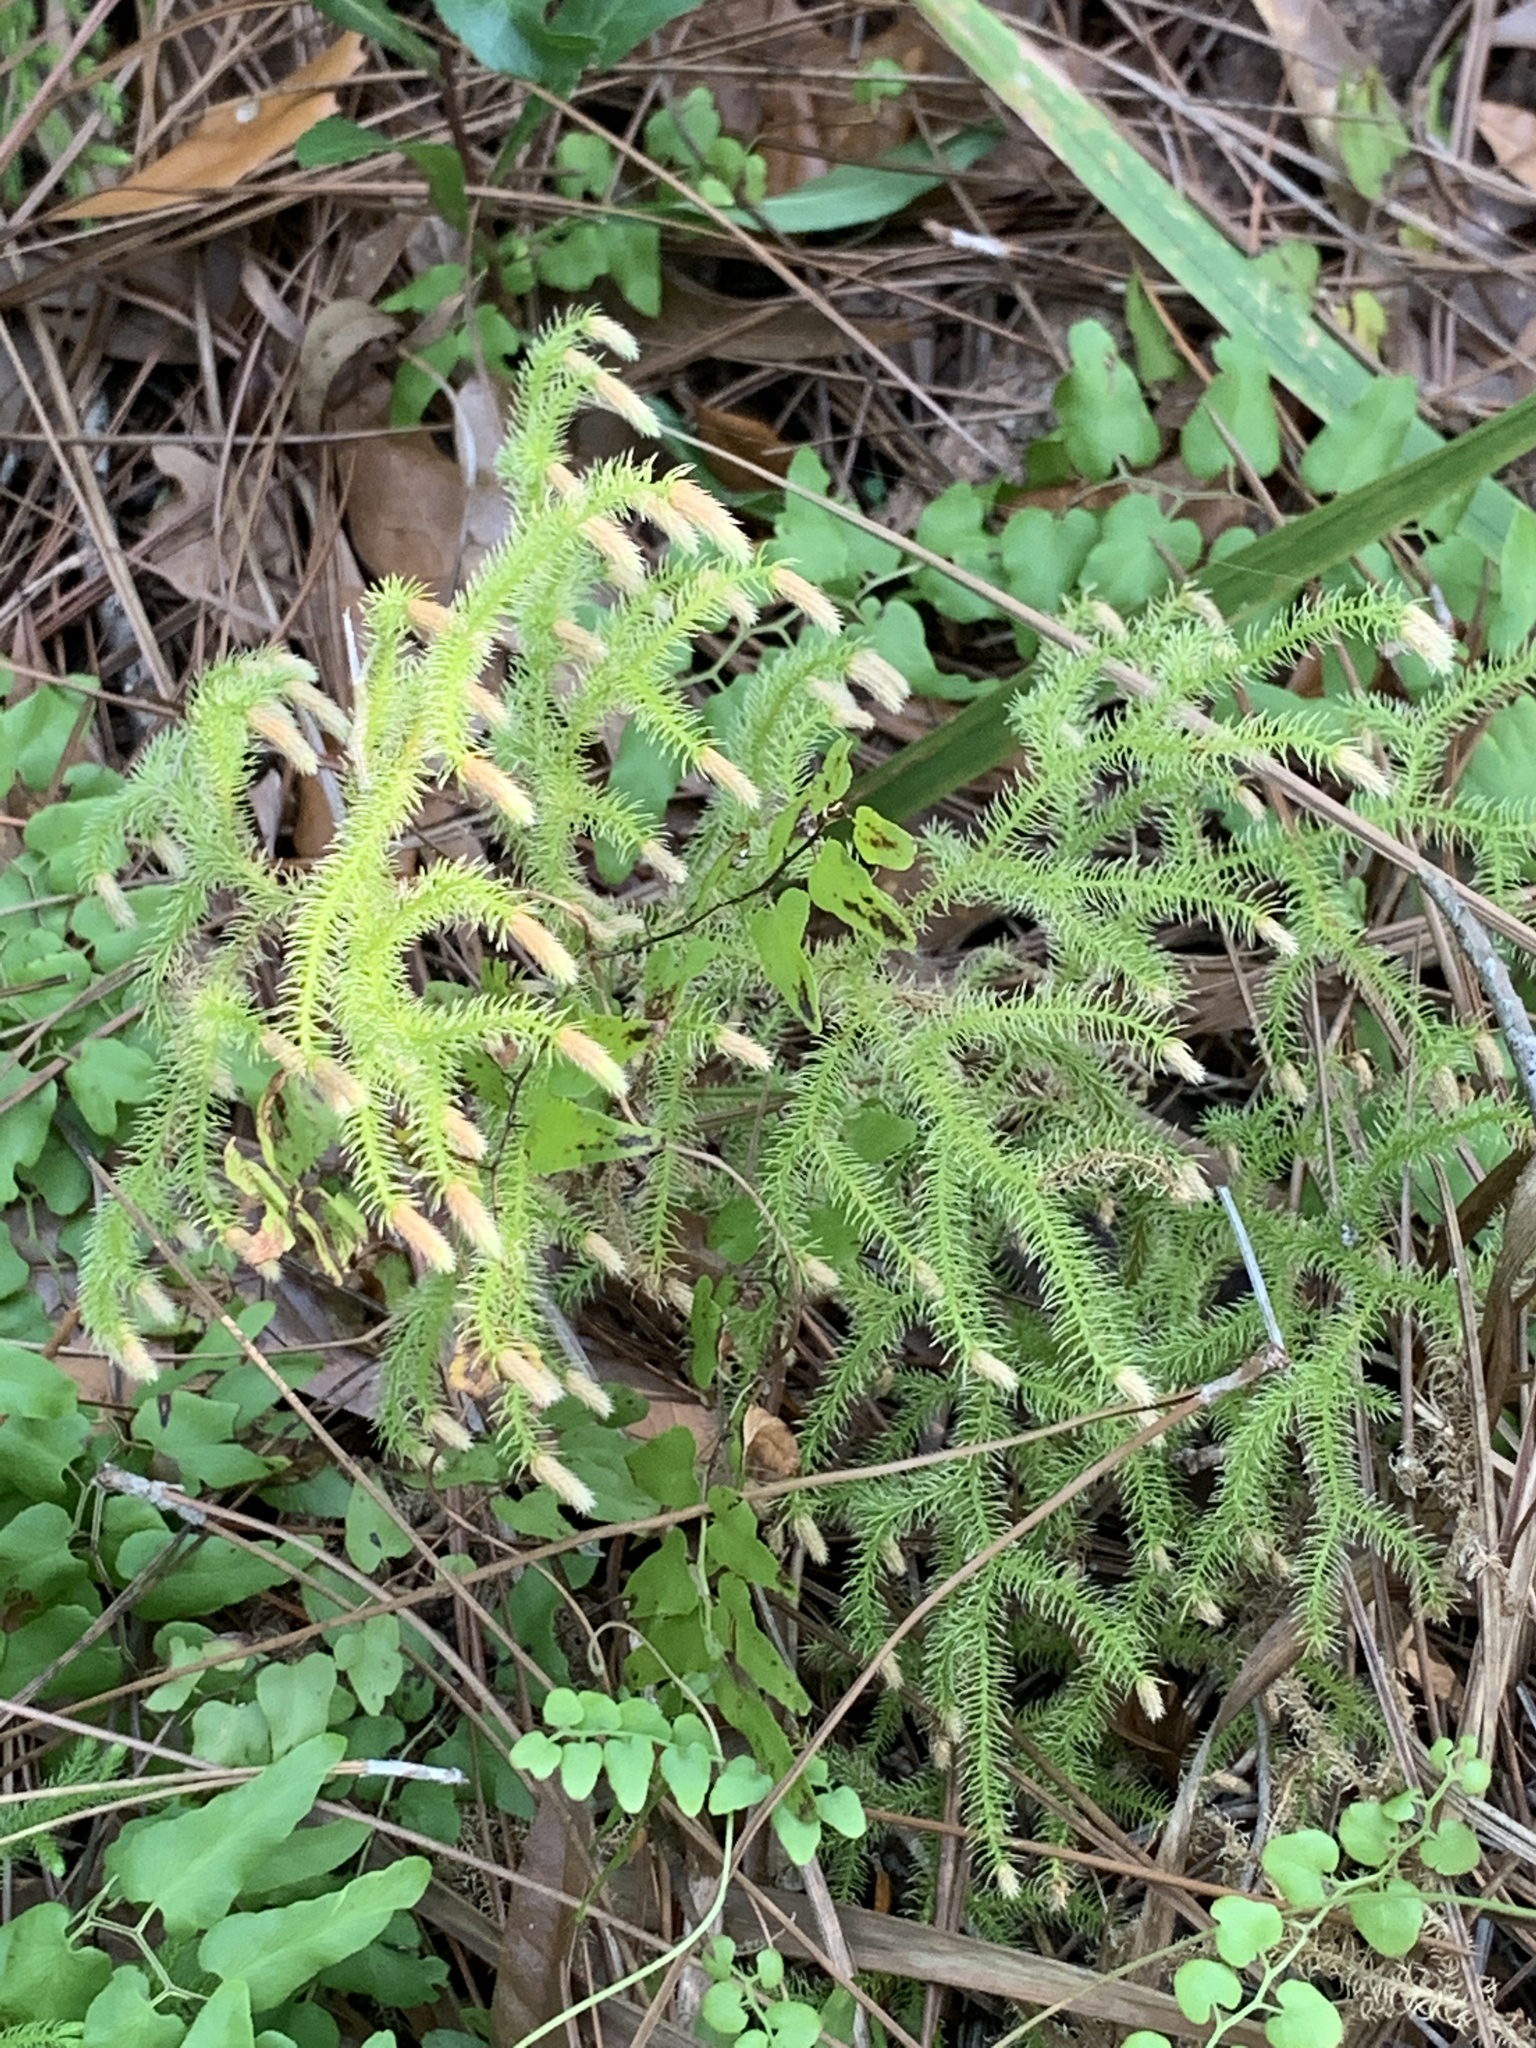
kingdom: Plantae
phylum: Tracheophyta
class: Lycopodiopsida
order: Lycopodiales
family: Lycopodiaceae
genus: Palhinhaea
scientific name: Palhinhaea cernua
